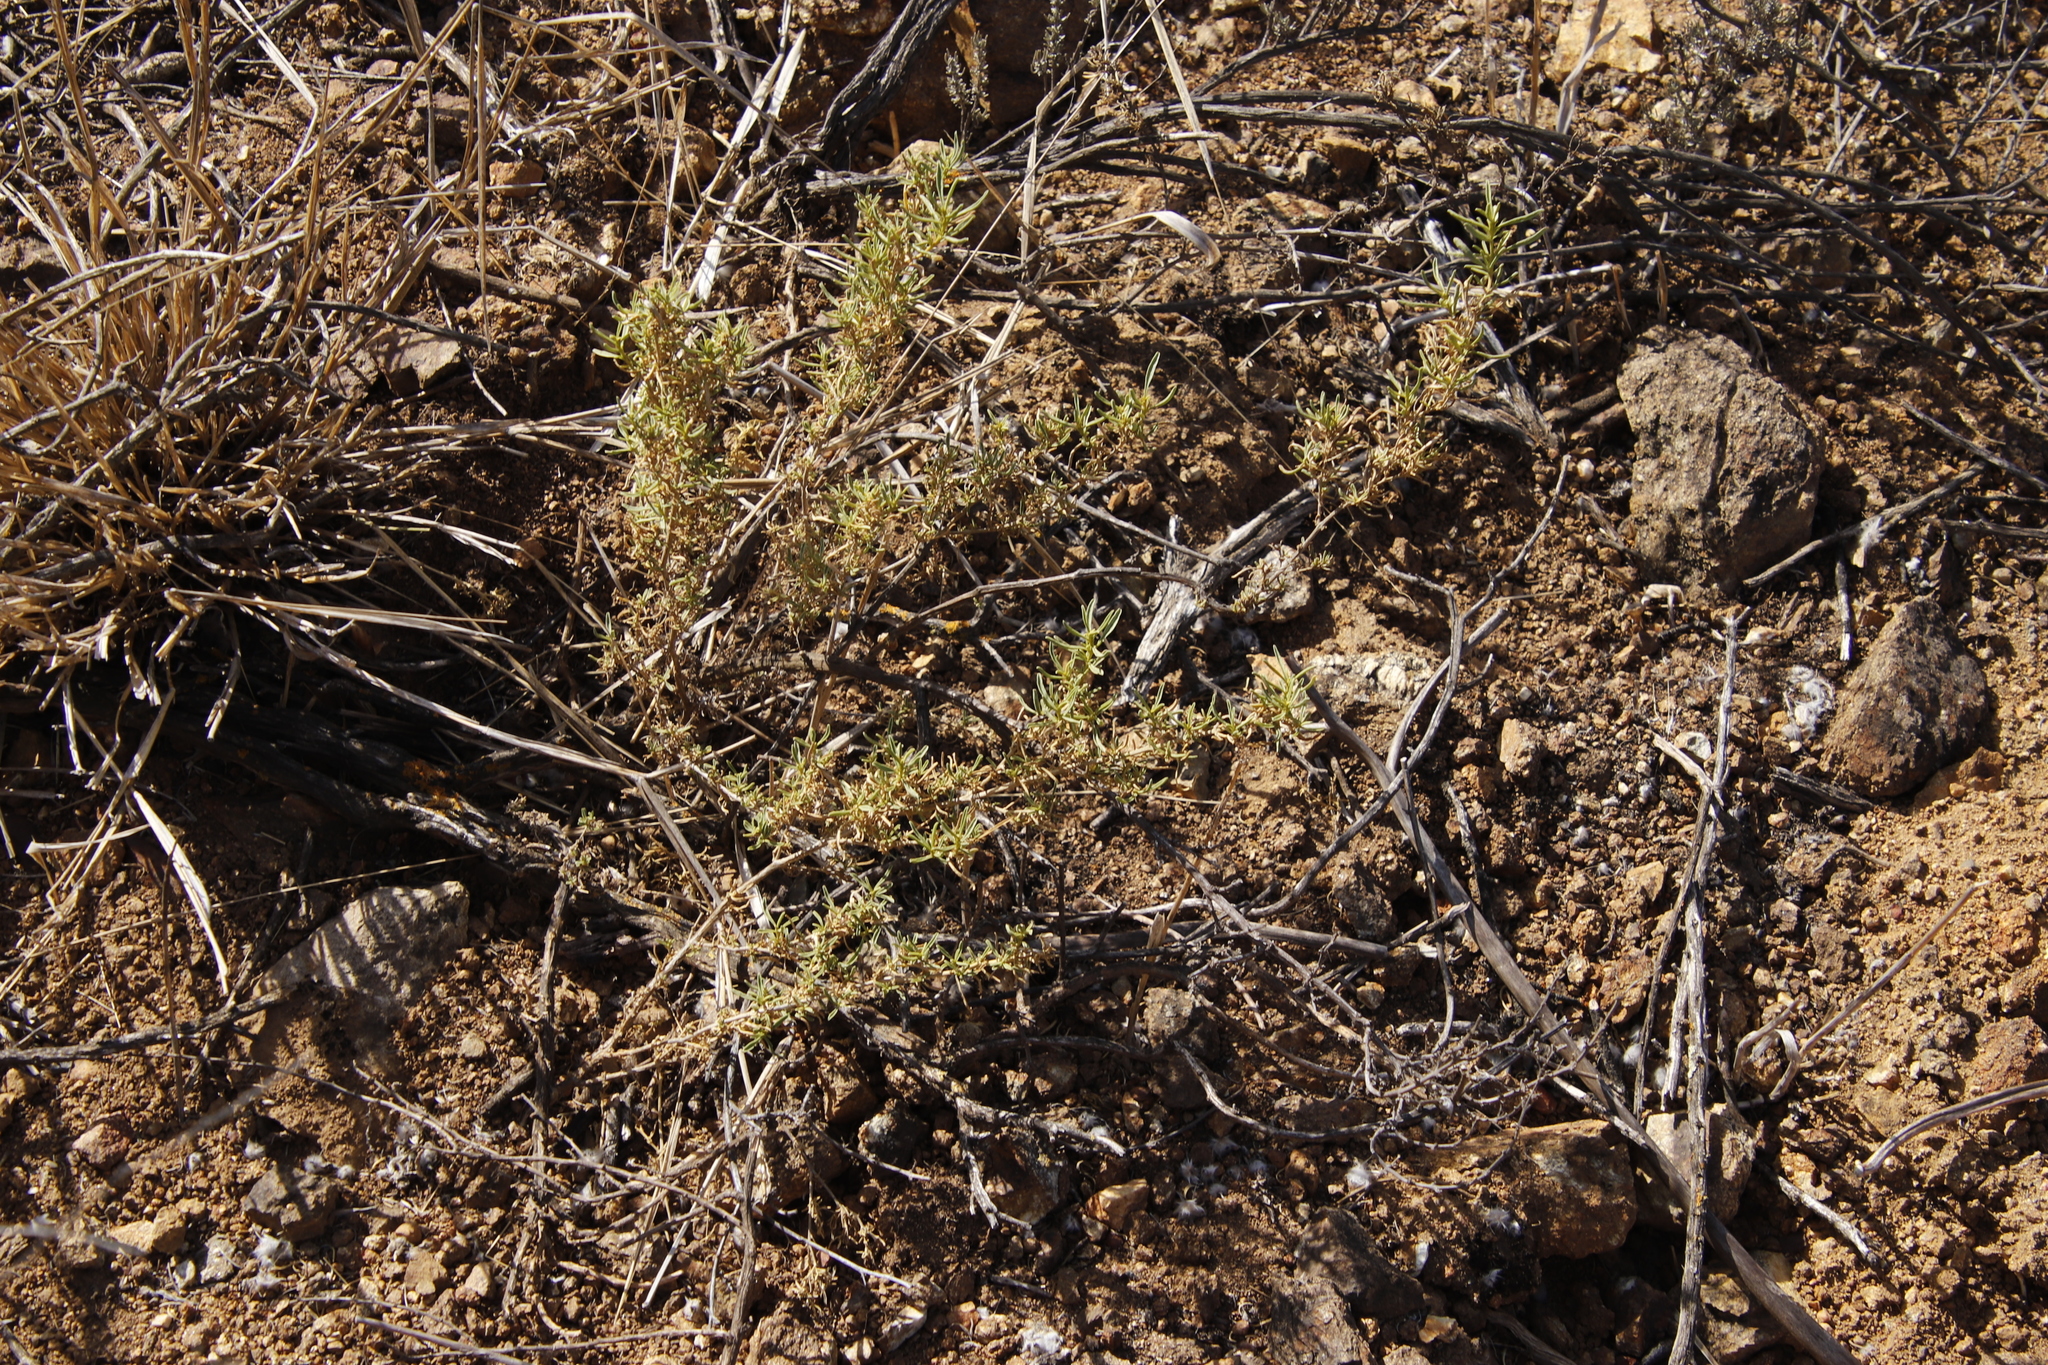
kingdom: Plantae
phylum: Tracheophyta
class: Magnoliopsida
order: Caryophyllales
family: Aizoaceae
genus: Aizoon
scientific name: Aizoon africanum
